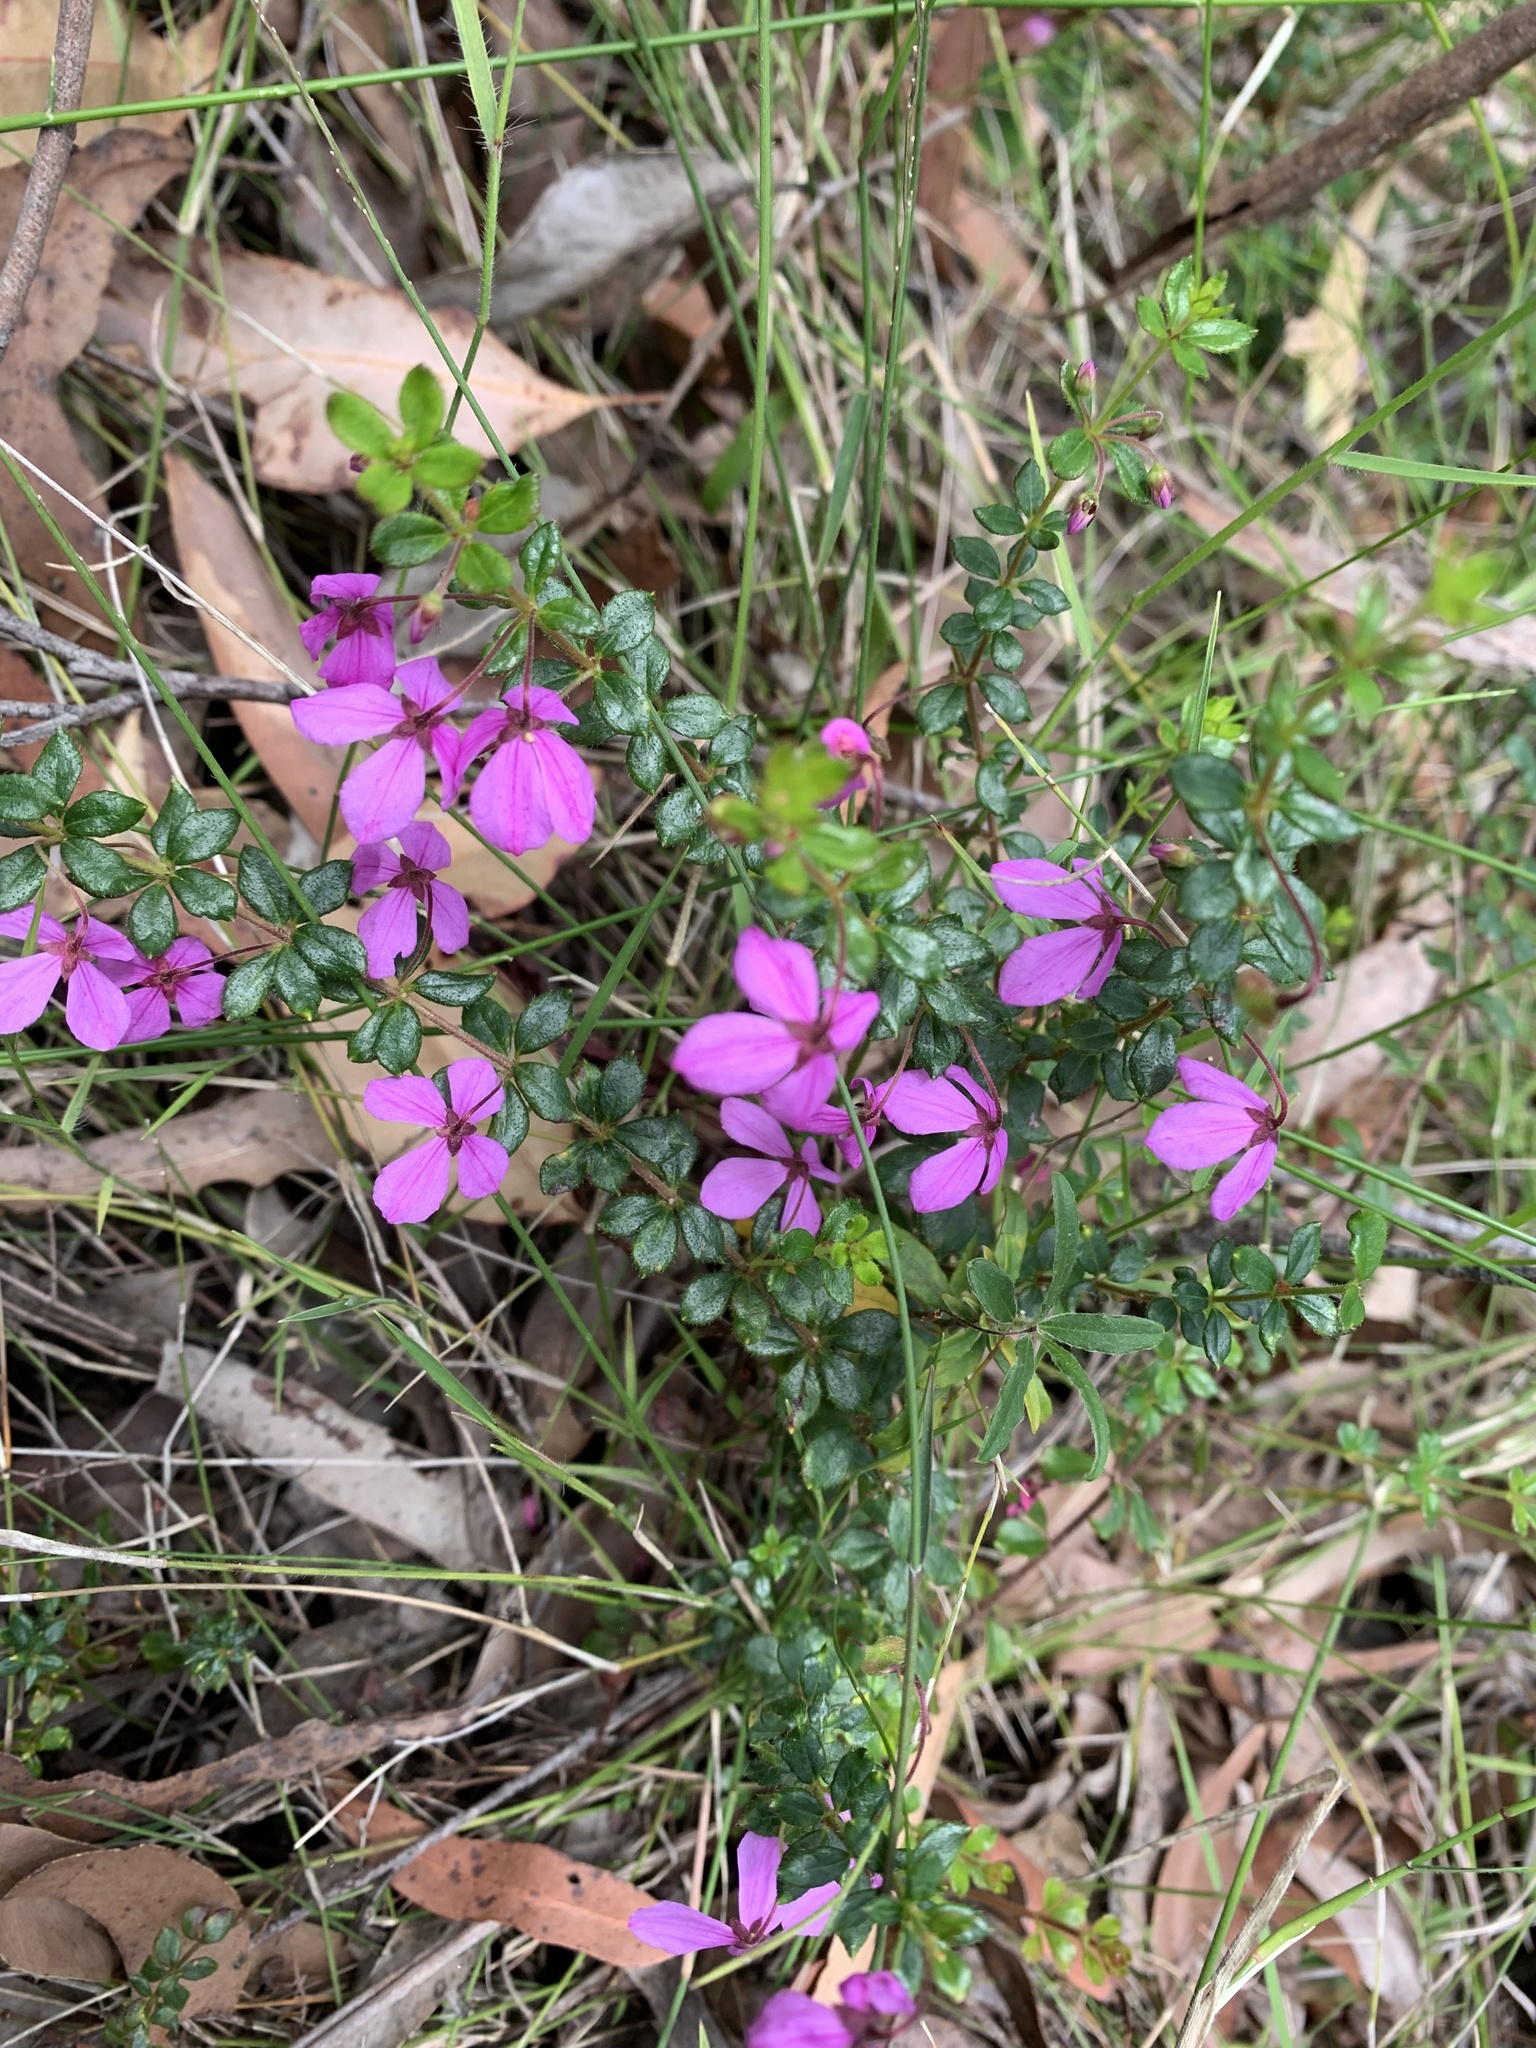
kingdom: Plantae
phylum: Tracheophyta
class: Magnoliopsida
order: Oxalidales
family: Elaeocarpaceae
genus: Tetratheca
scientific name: Tetratheca thymifolia
